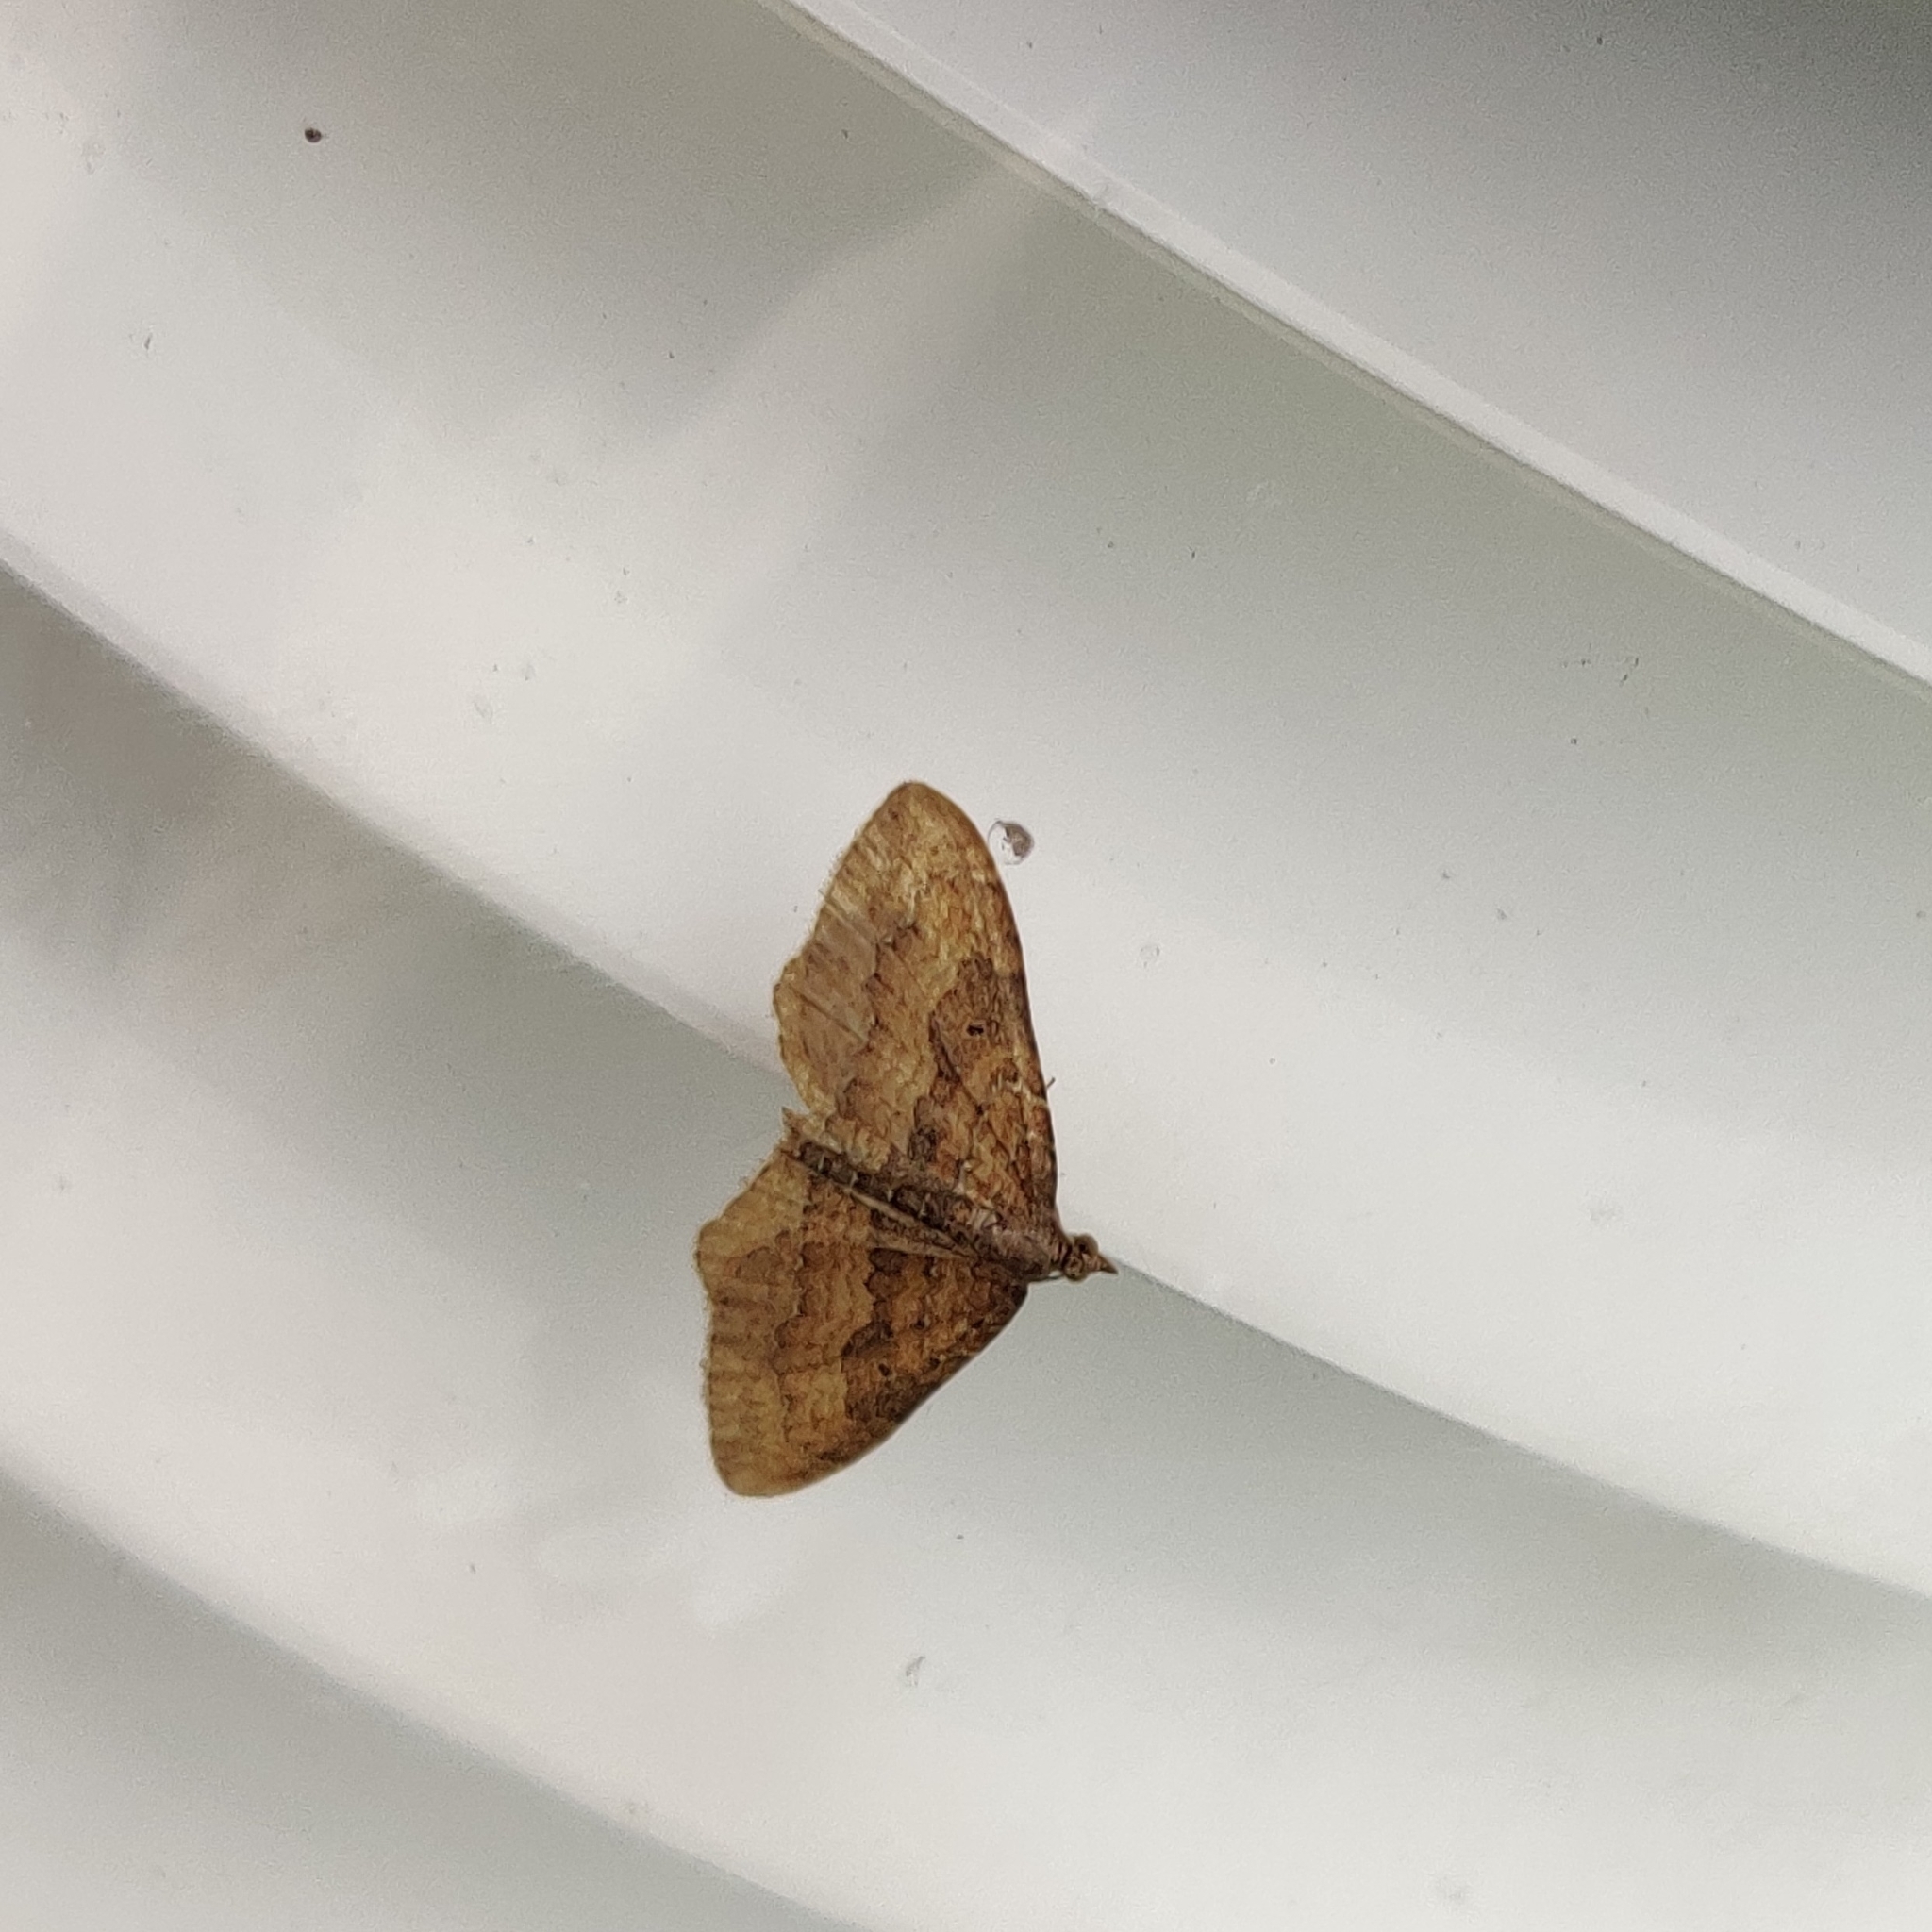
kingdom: Animalia
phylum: Arthropoda
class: Insecta
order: Lepidoptera
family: Geometridae
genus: Orthonama
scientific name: Orthonama obstipata
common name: The gem
